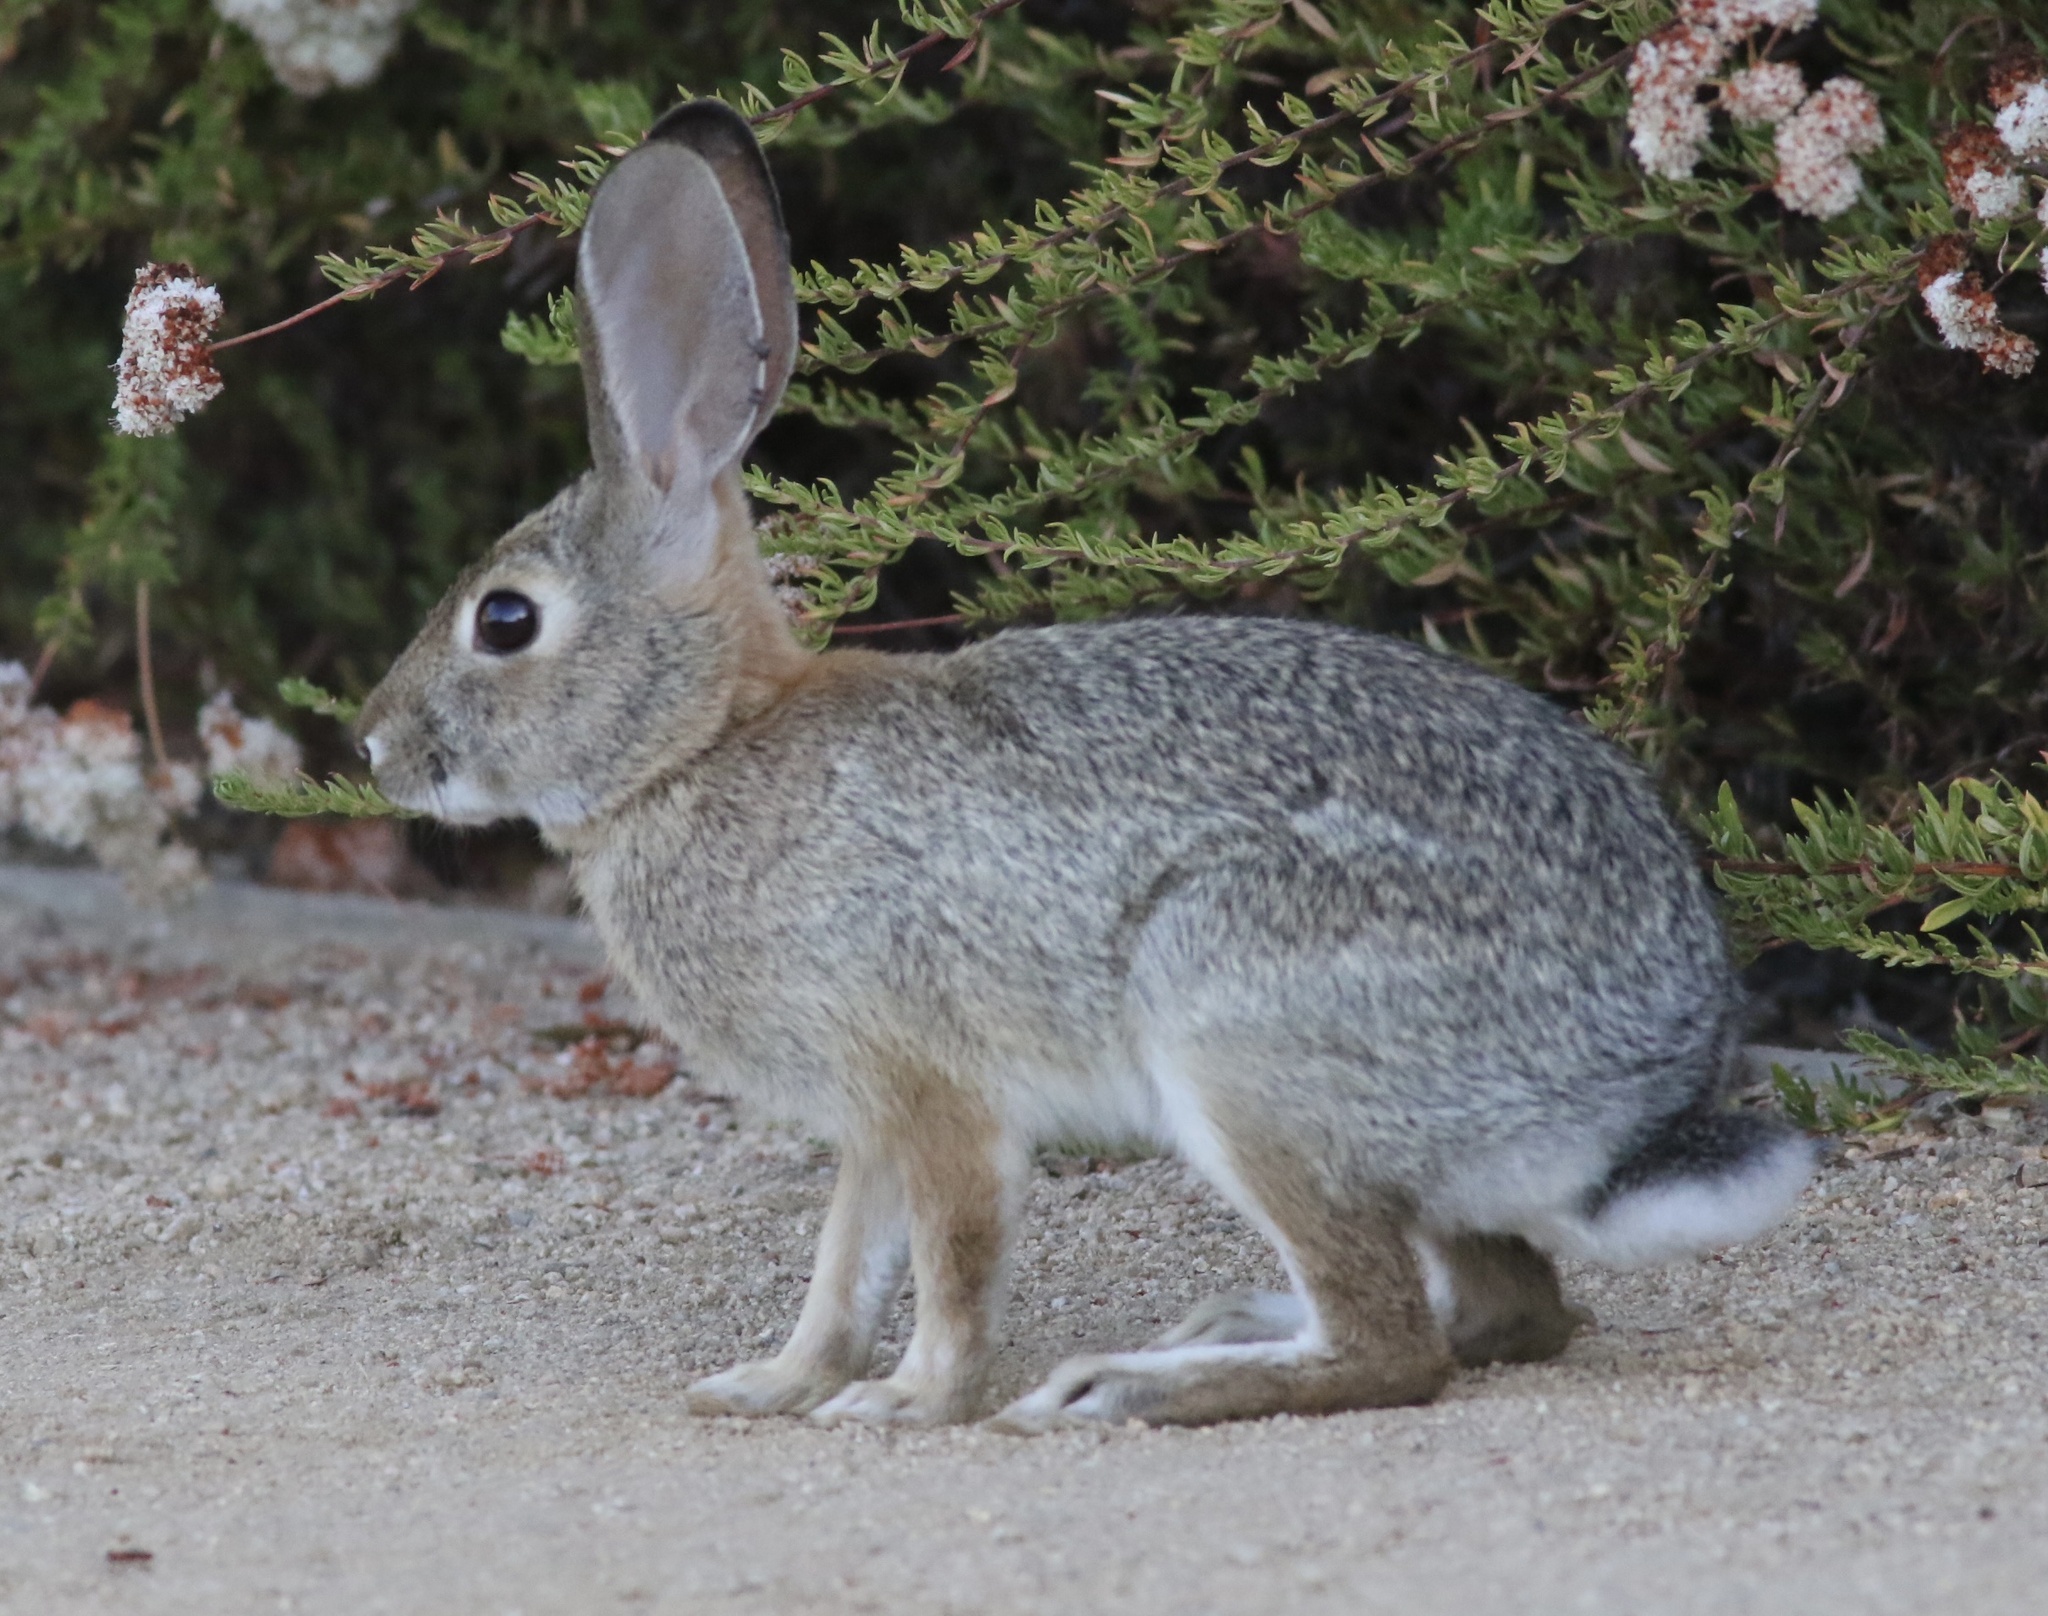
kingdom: Animalia
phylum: Chordata
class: Mammalia
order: Lagomorpha
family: Leporidae
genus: Sylvilagus
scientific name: Sylvilagus audubonii
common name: Desert cottontail
